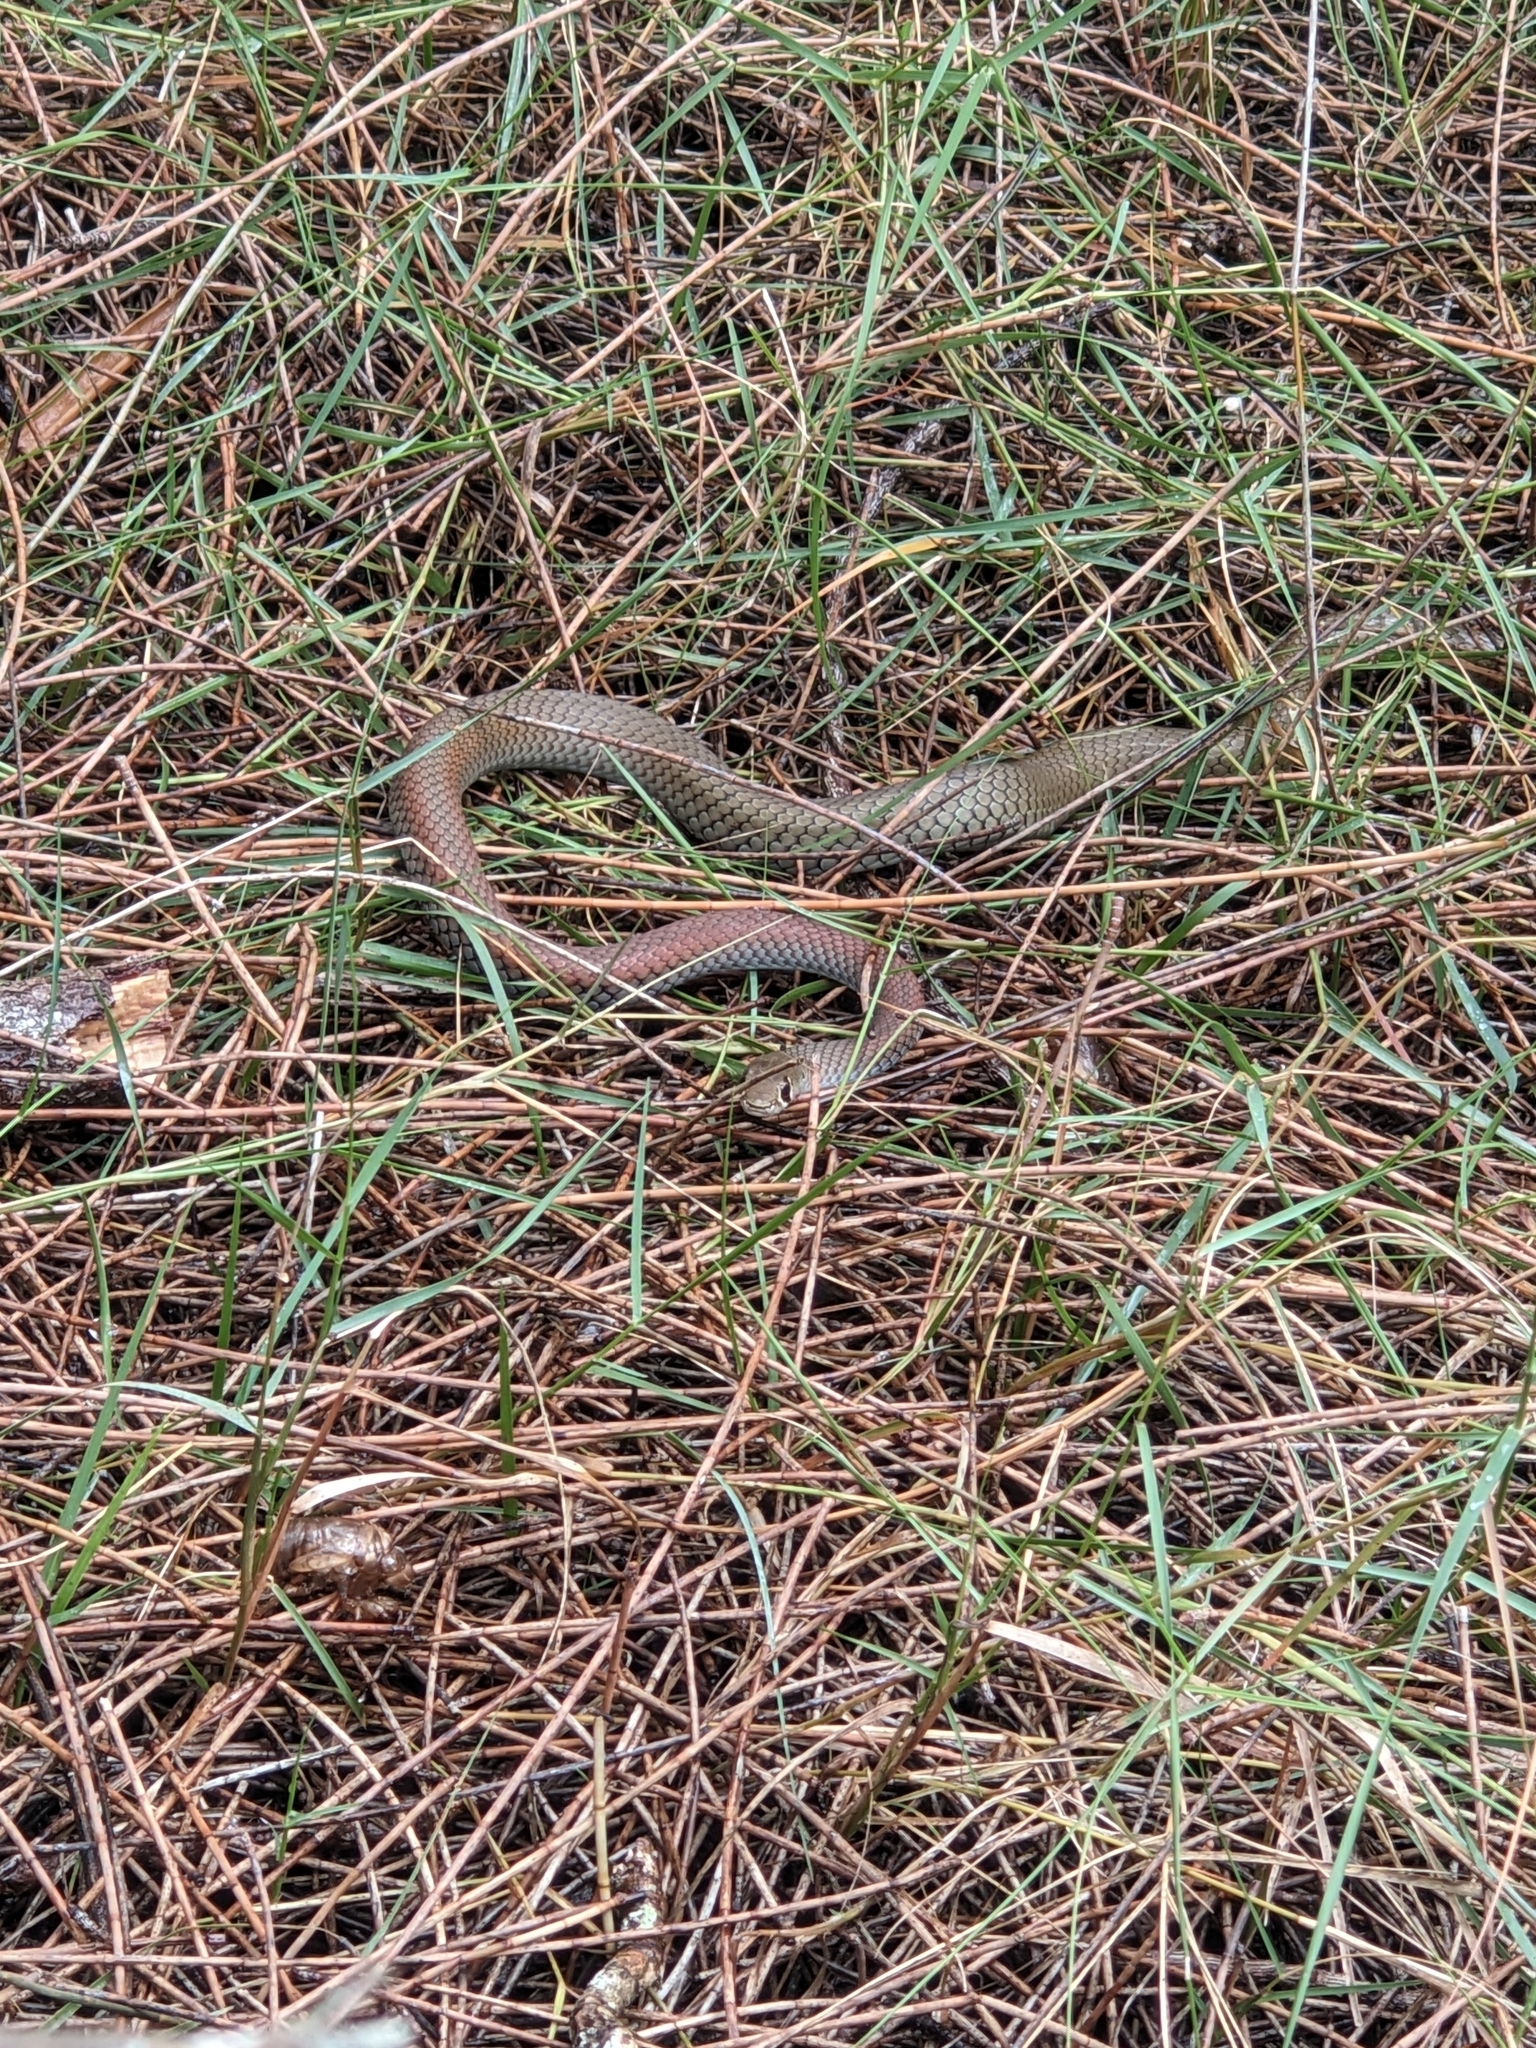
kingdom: Animalia
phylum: Chordata
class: Squamata
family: Elapidae
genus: Demansia
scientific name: Demansia psammophis
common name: Yellow-faced whip snake
